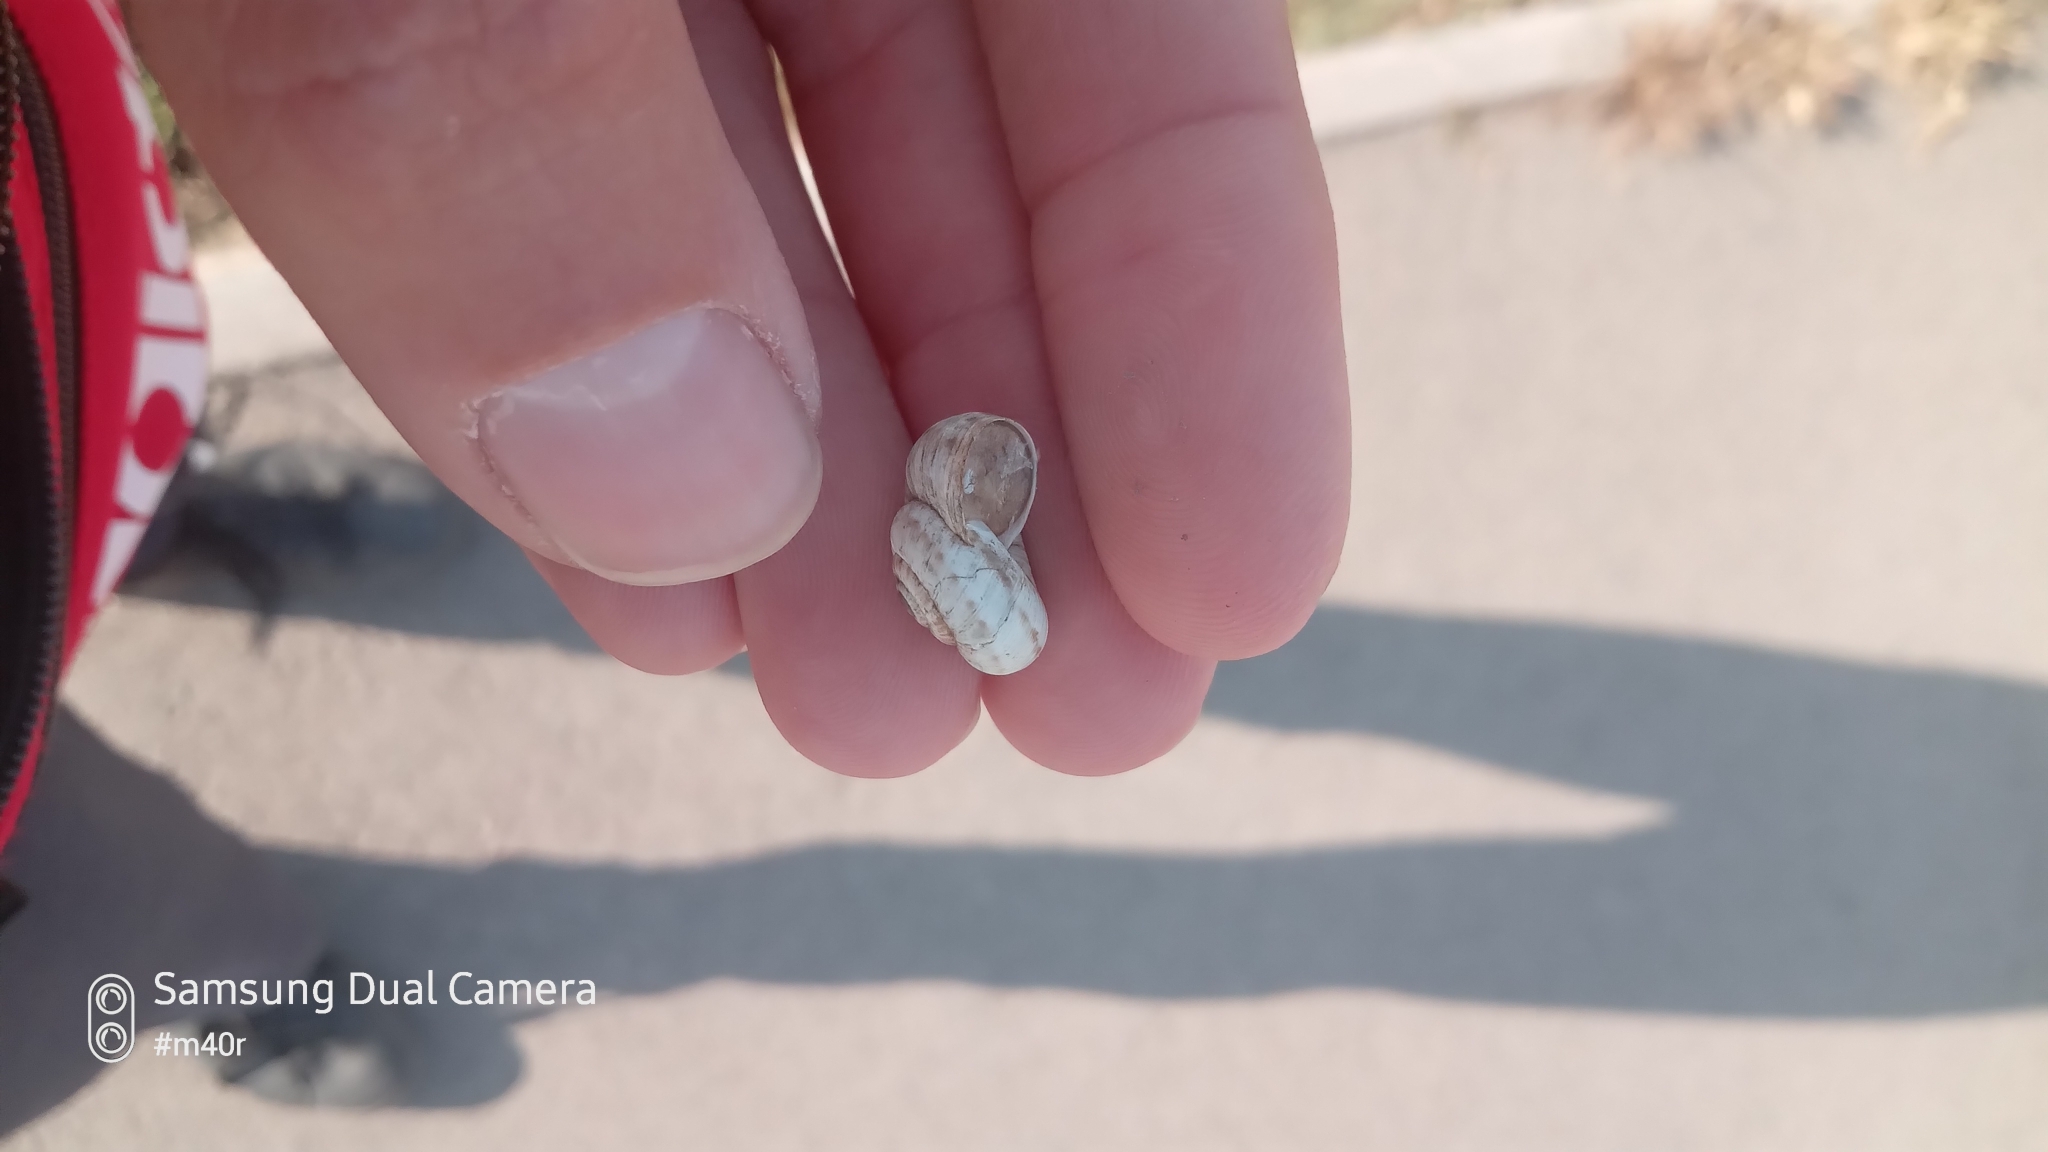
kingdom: Animalia
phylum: Mollusca
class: Gastropoda
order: Stylommatophora
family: Geomitridae
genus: Xeropicta
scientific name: Xeropicta derbentina
